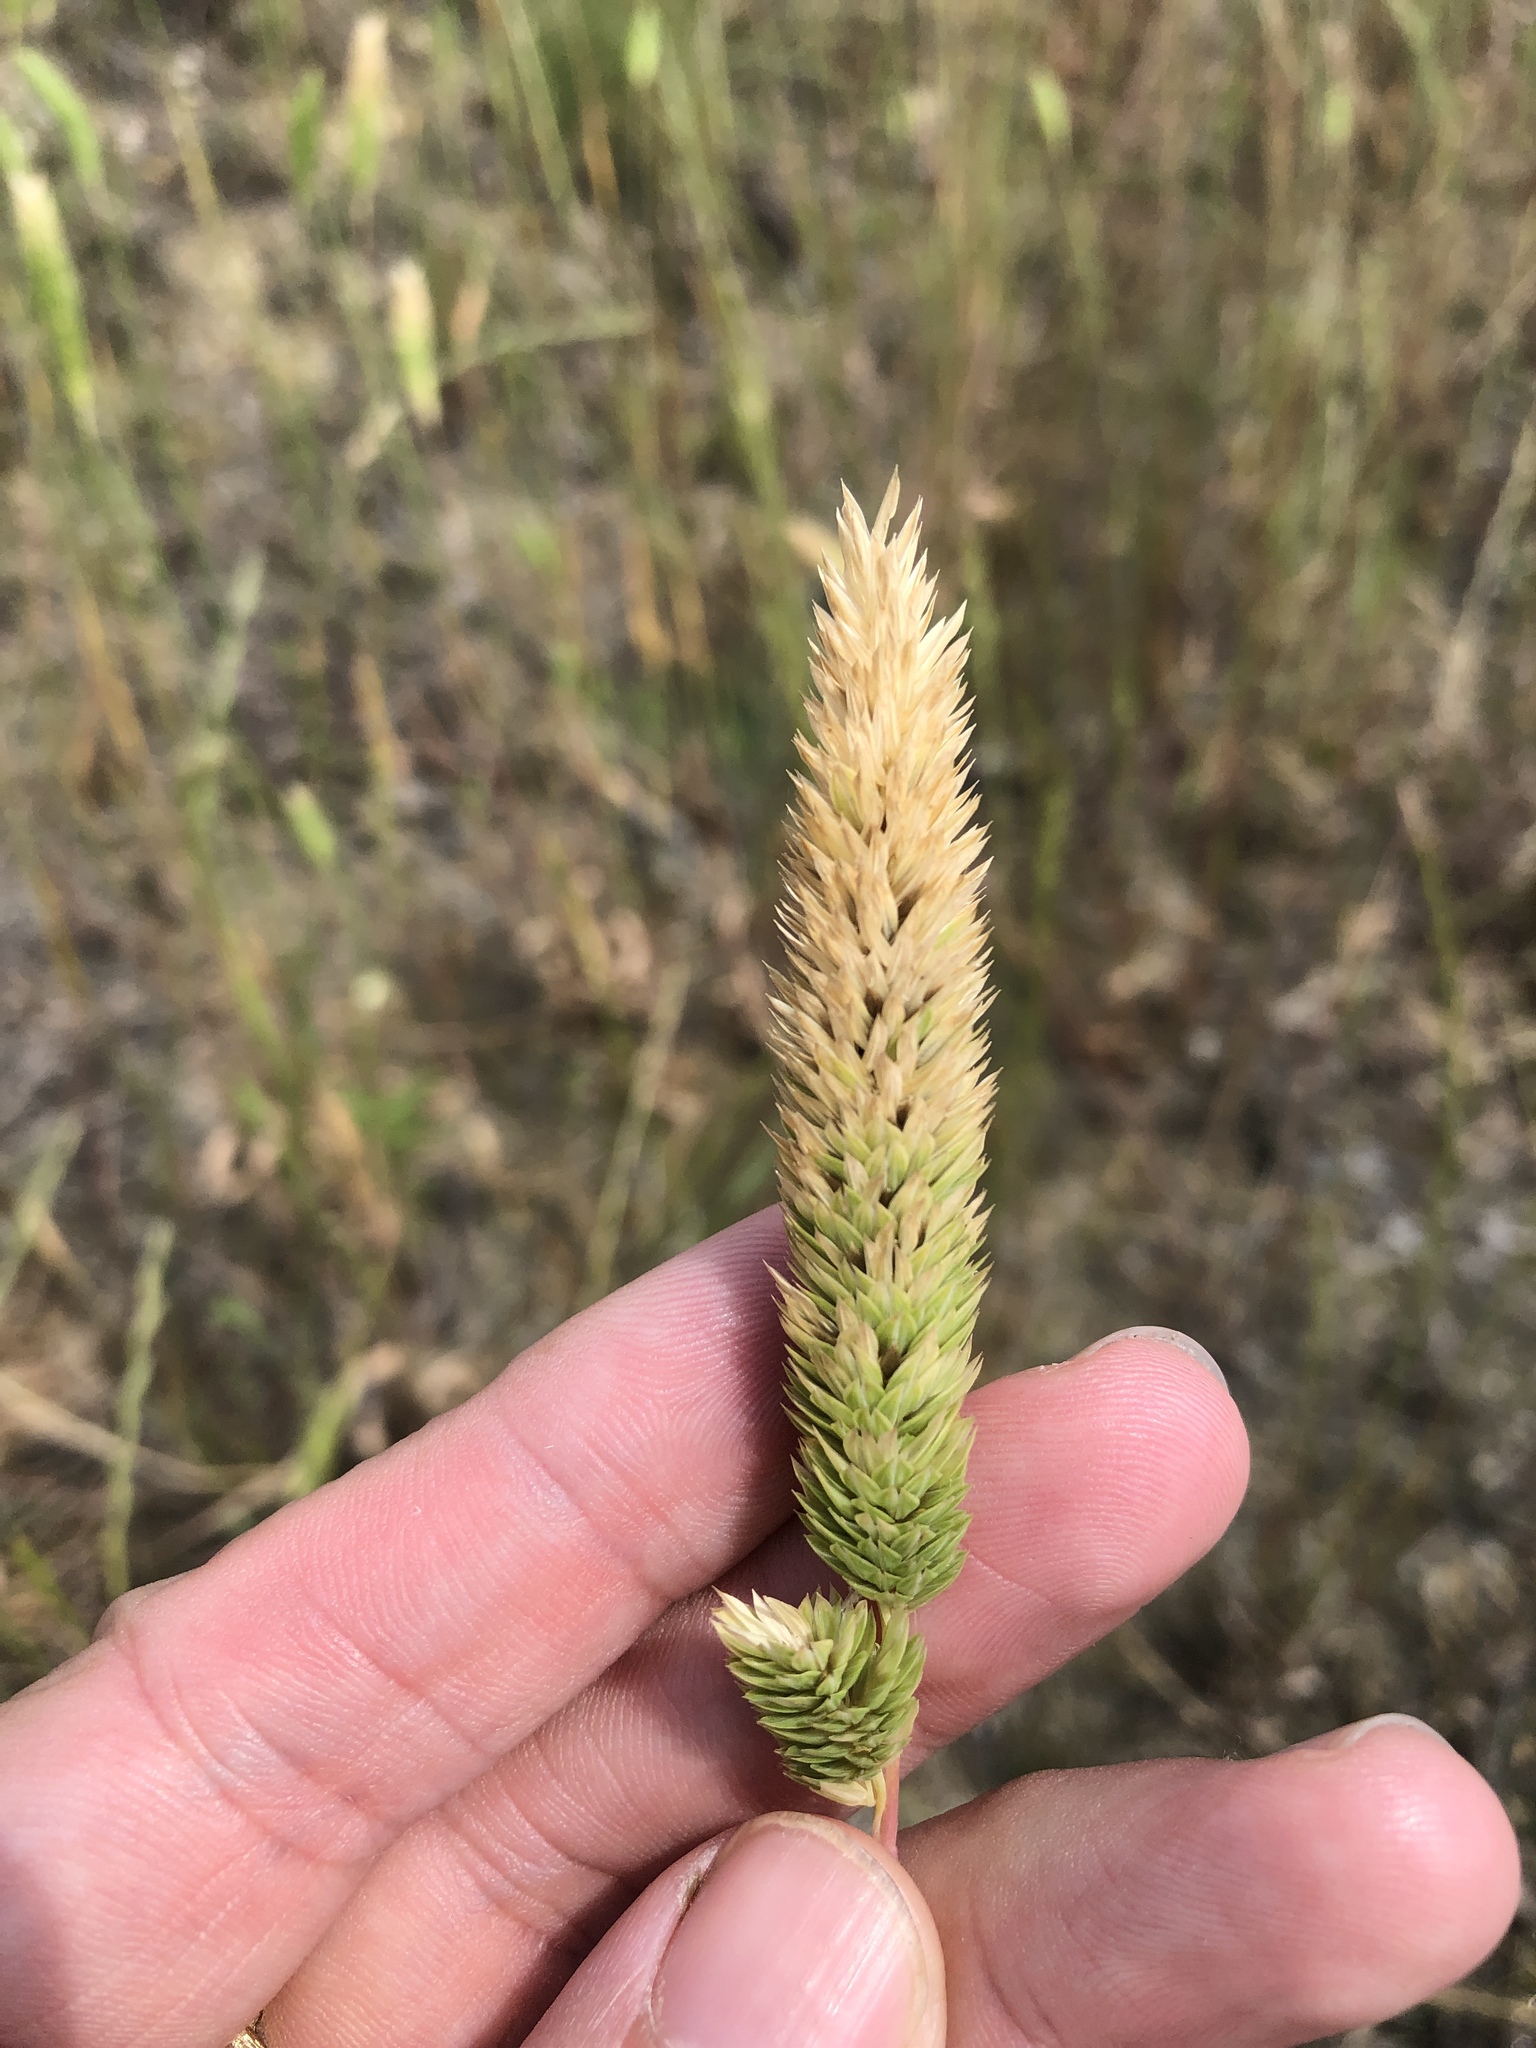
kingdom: Plantae
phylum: Tracheophyta
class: Liliopsida
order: Poales
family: Poaceae
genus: Phalaris
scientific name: Phalaris caroliniana
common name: May grass
